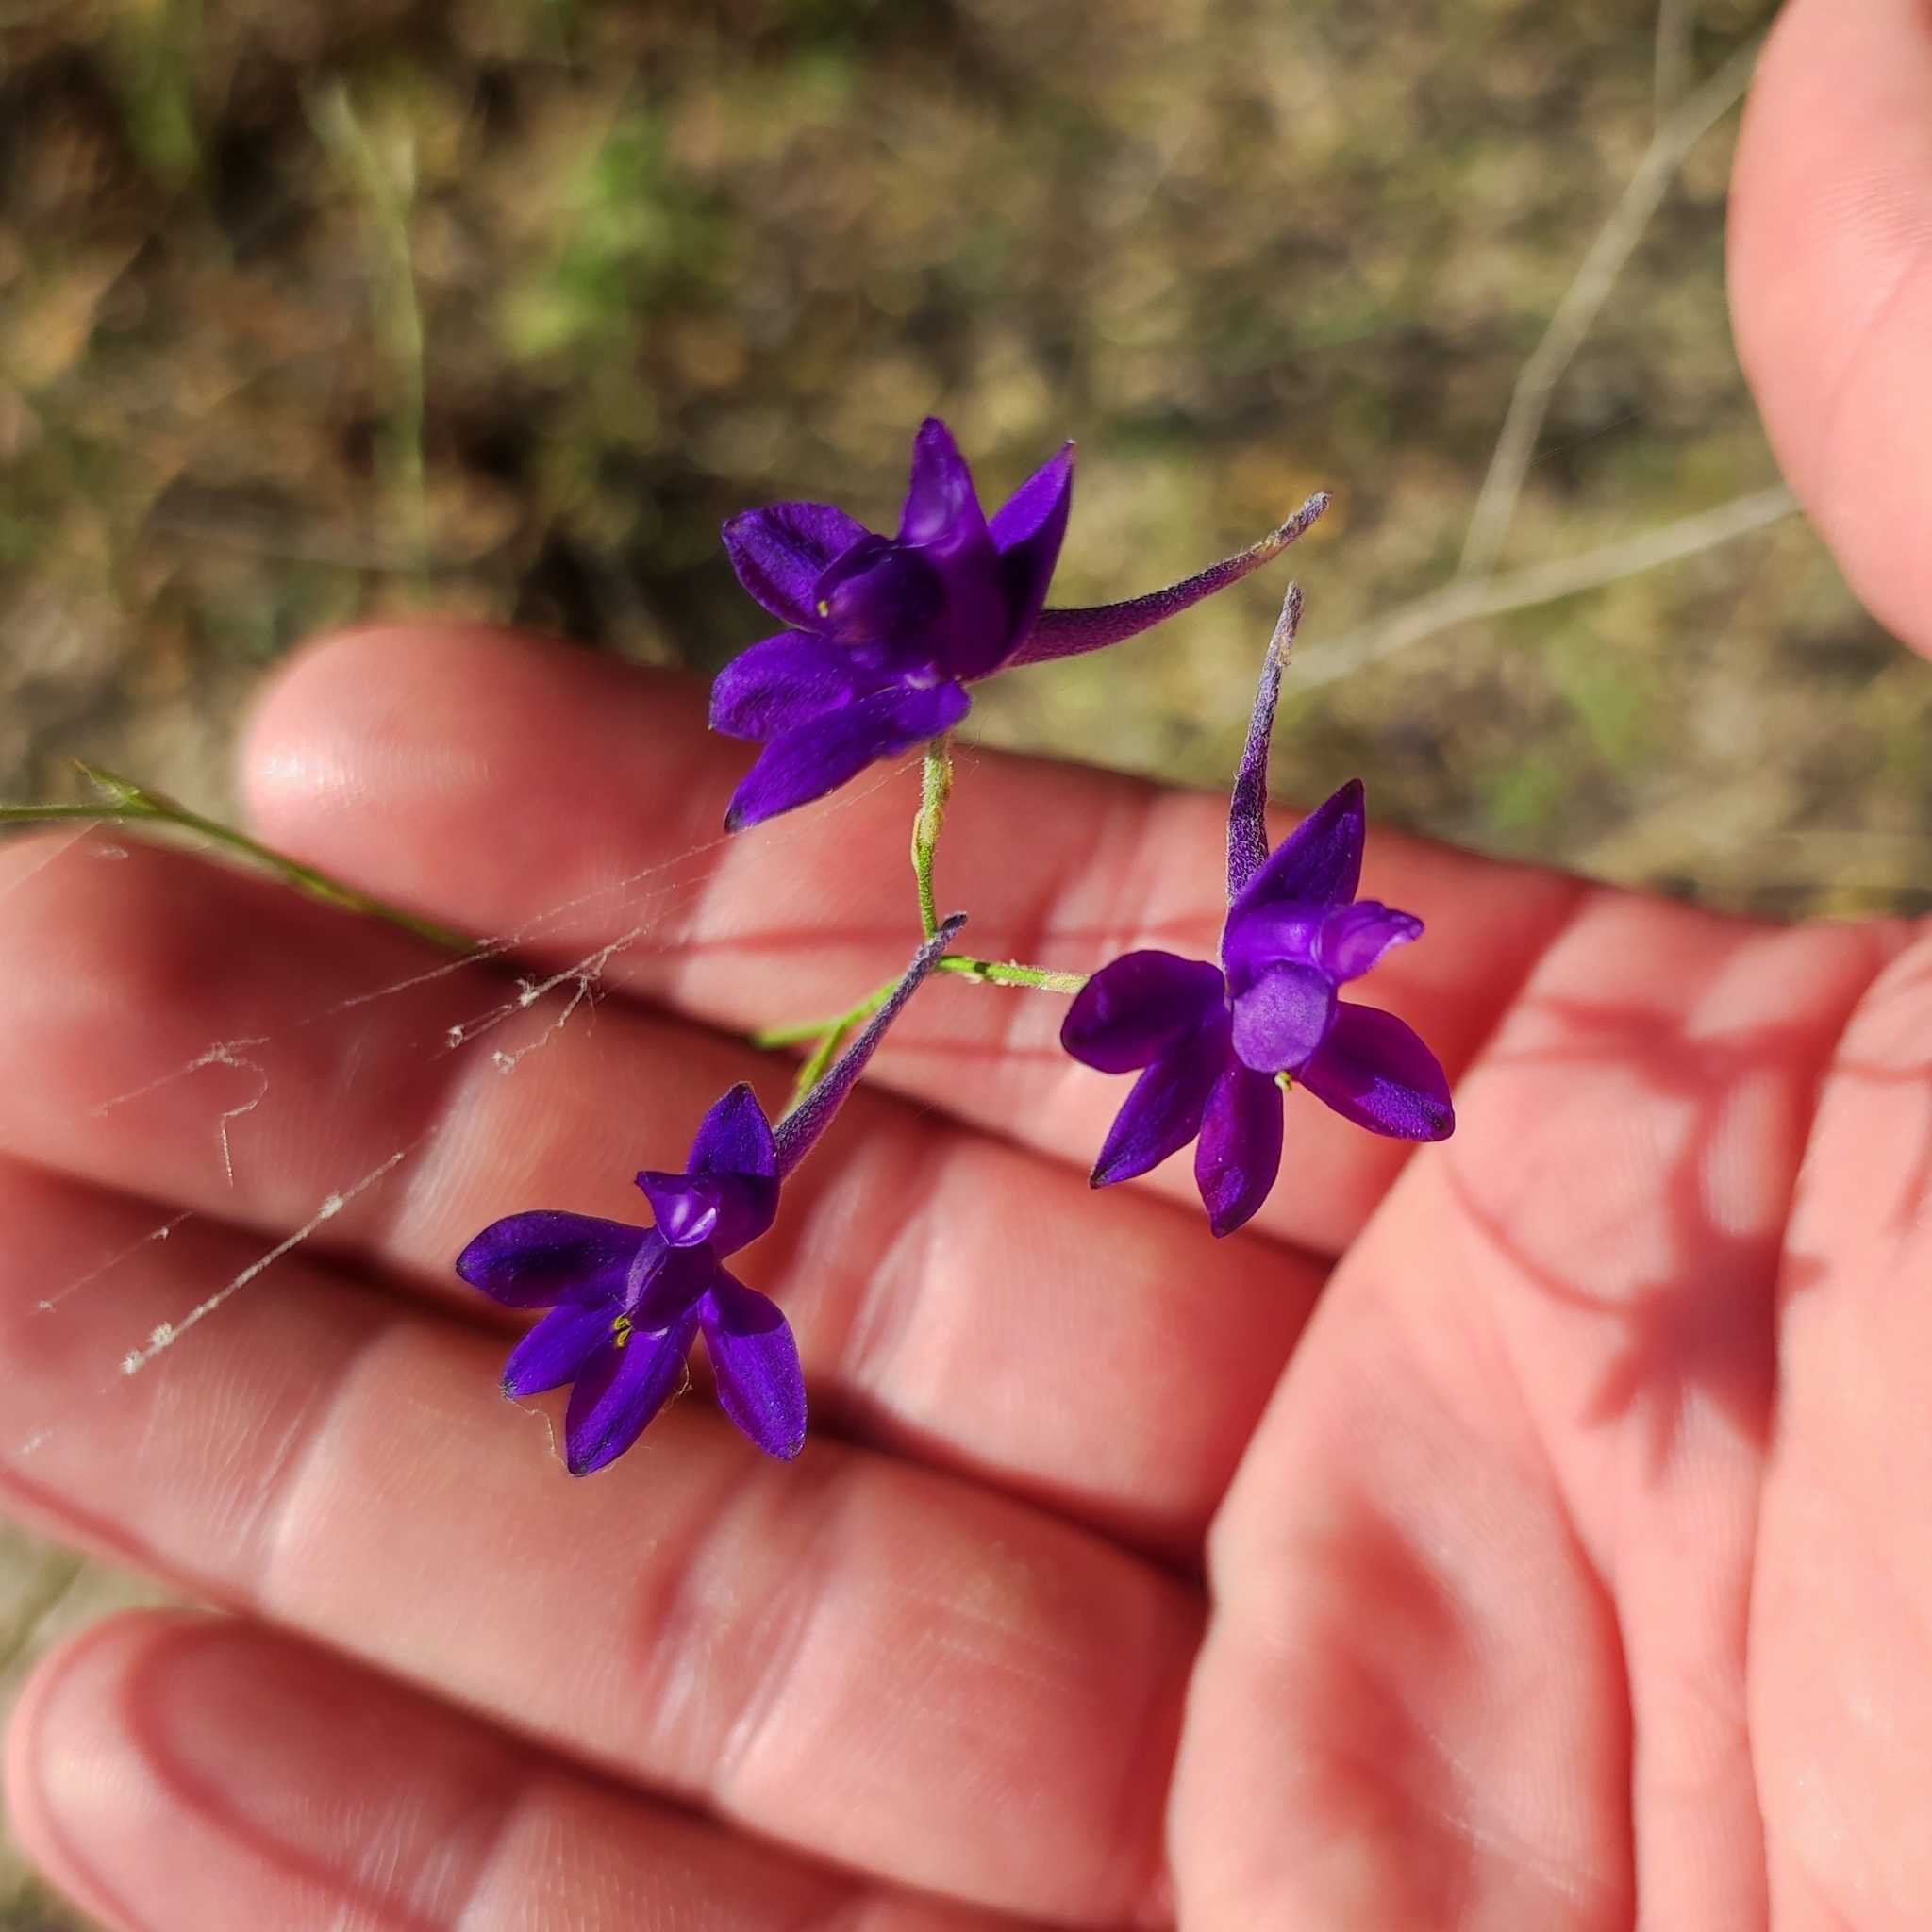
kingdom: Plantae
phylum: Tracheophyta
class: Magnoliopsida
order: Ranunculales
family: Ranunculaceae
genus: Delphinium
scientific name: Delphinium consolida
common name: Branching larkspur
